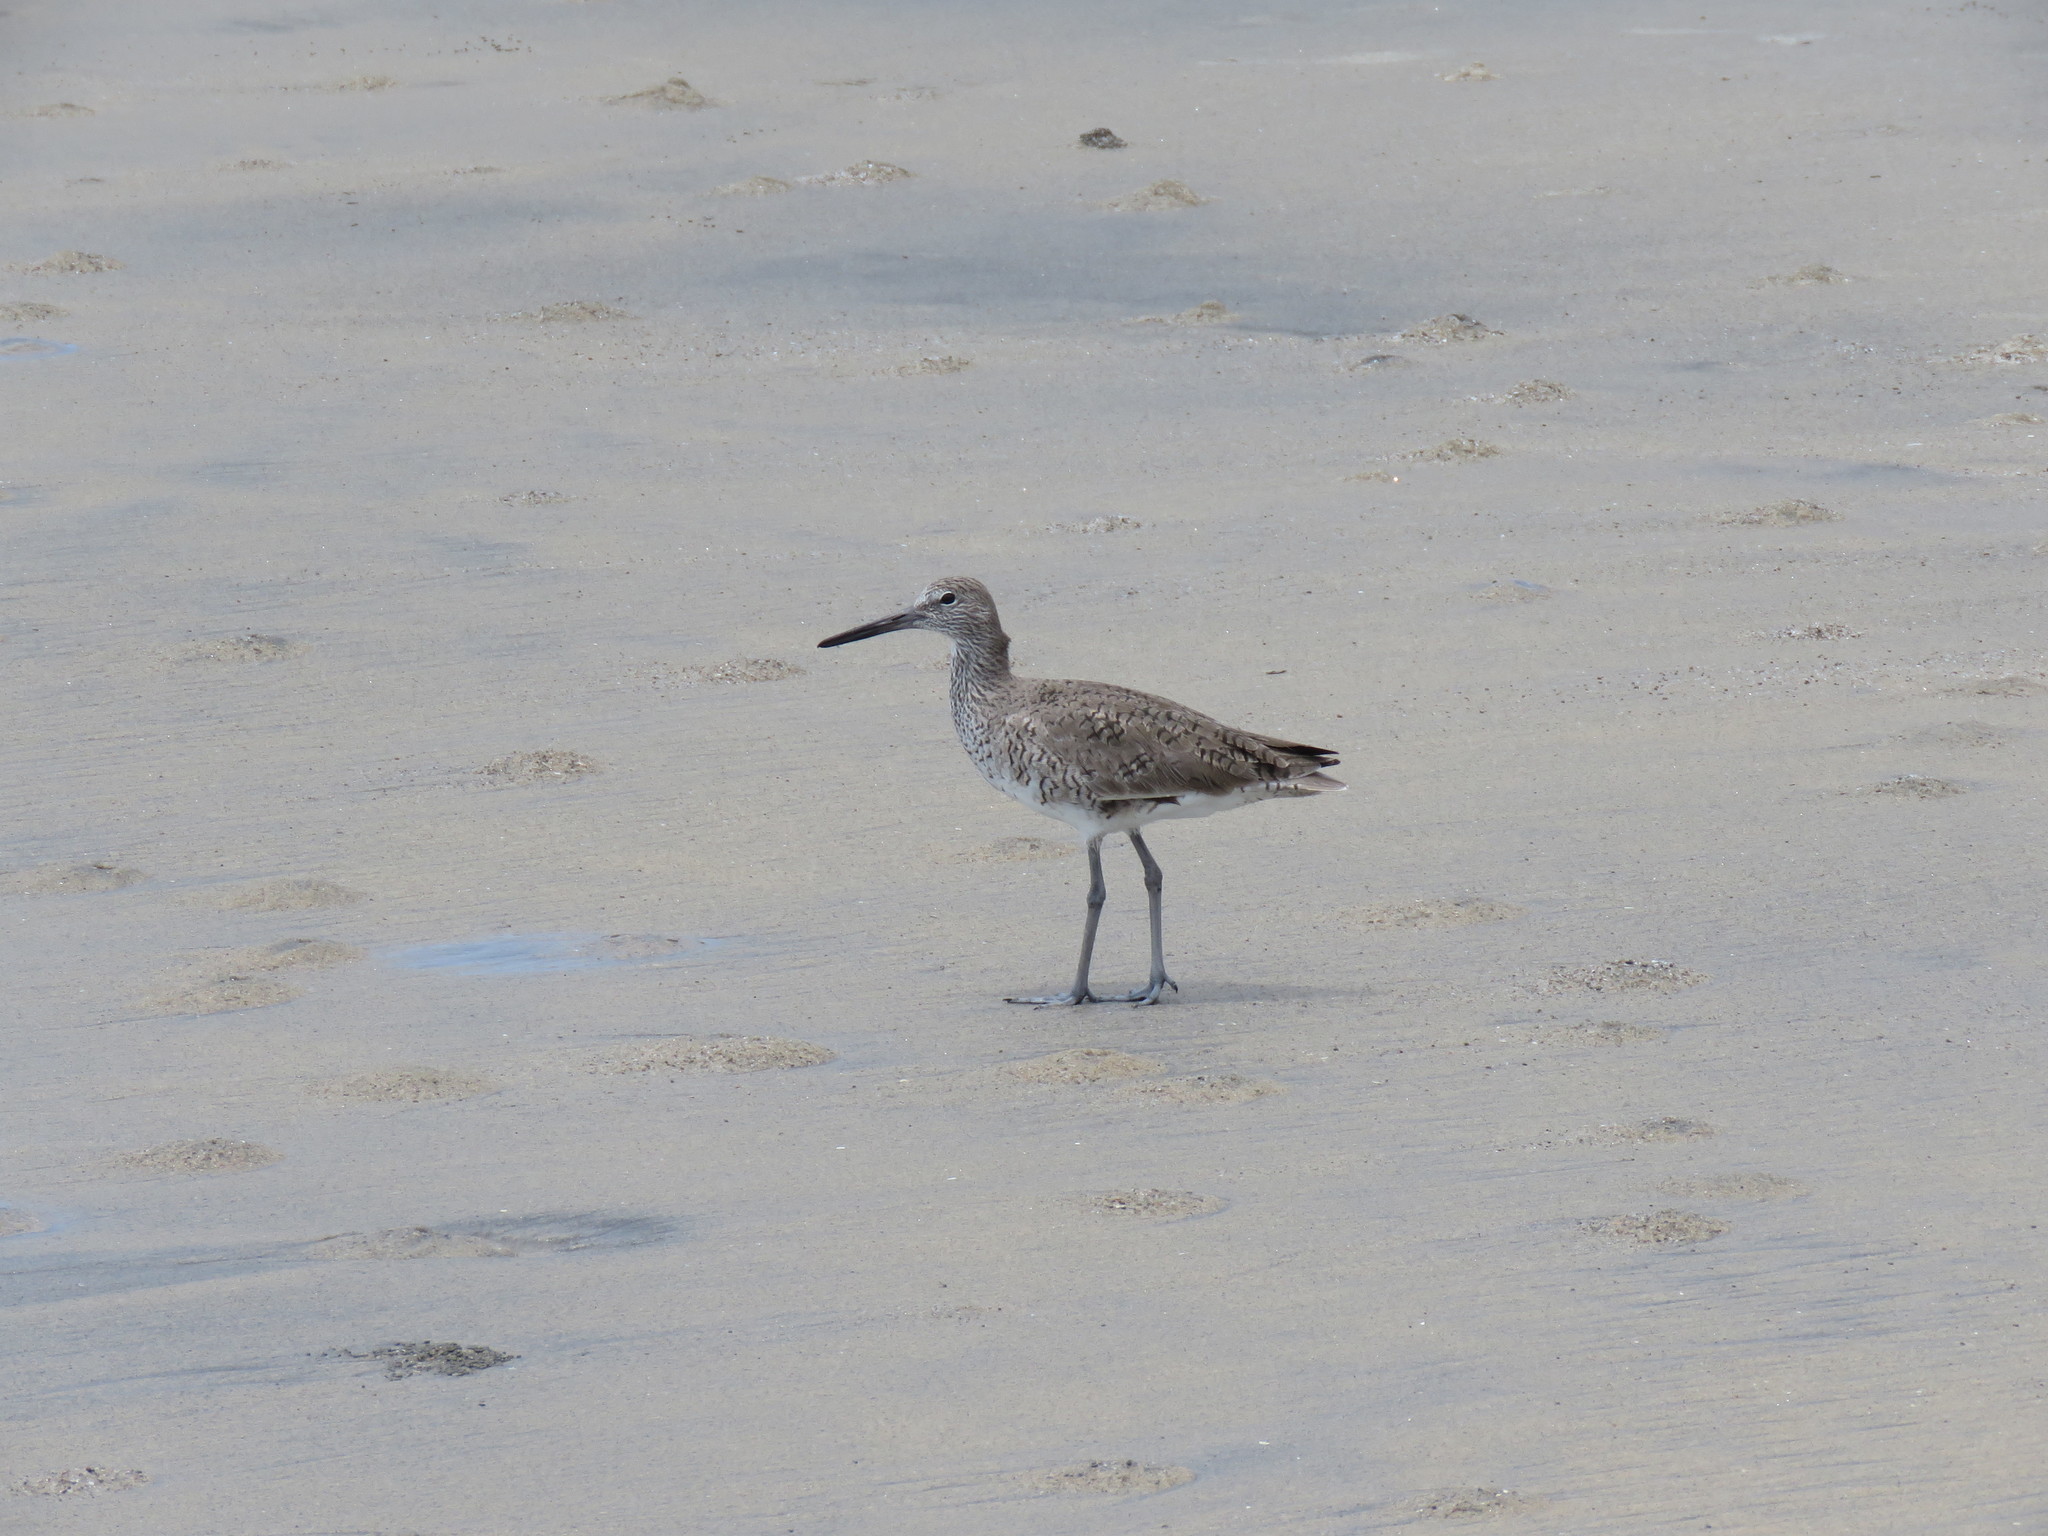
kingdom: Animalia
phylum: Chordata
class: Aves
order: Charadriiformes
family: Scolopacidae
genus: Tringa
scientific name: Tringa semipalmata
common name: Willet
